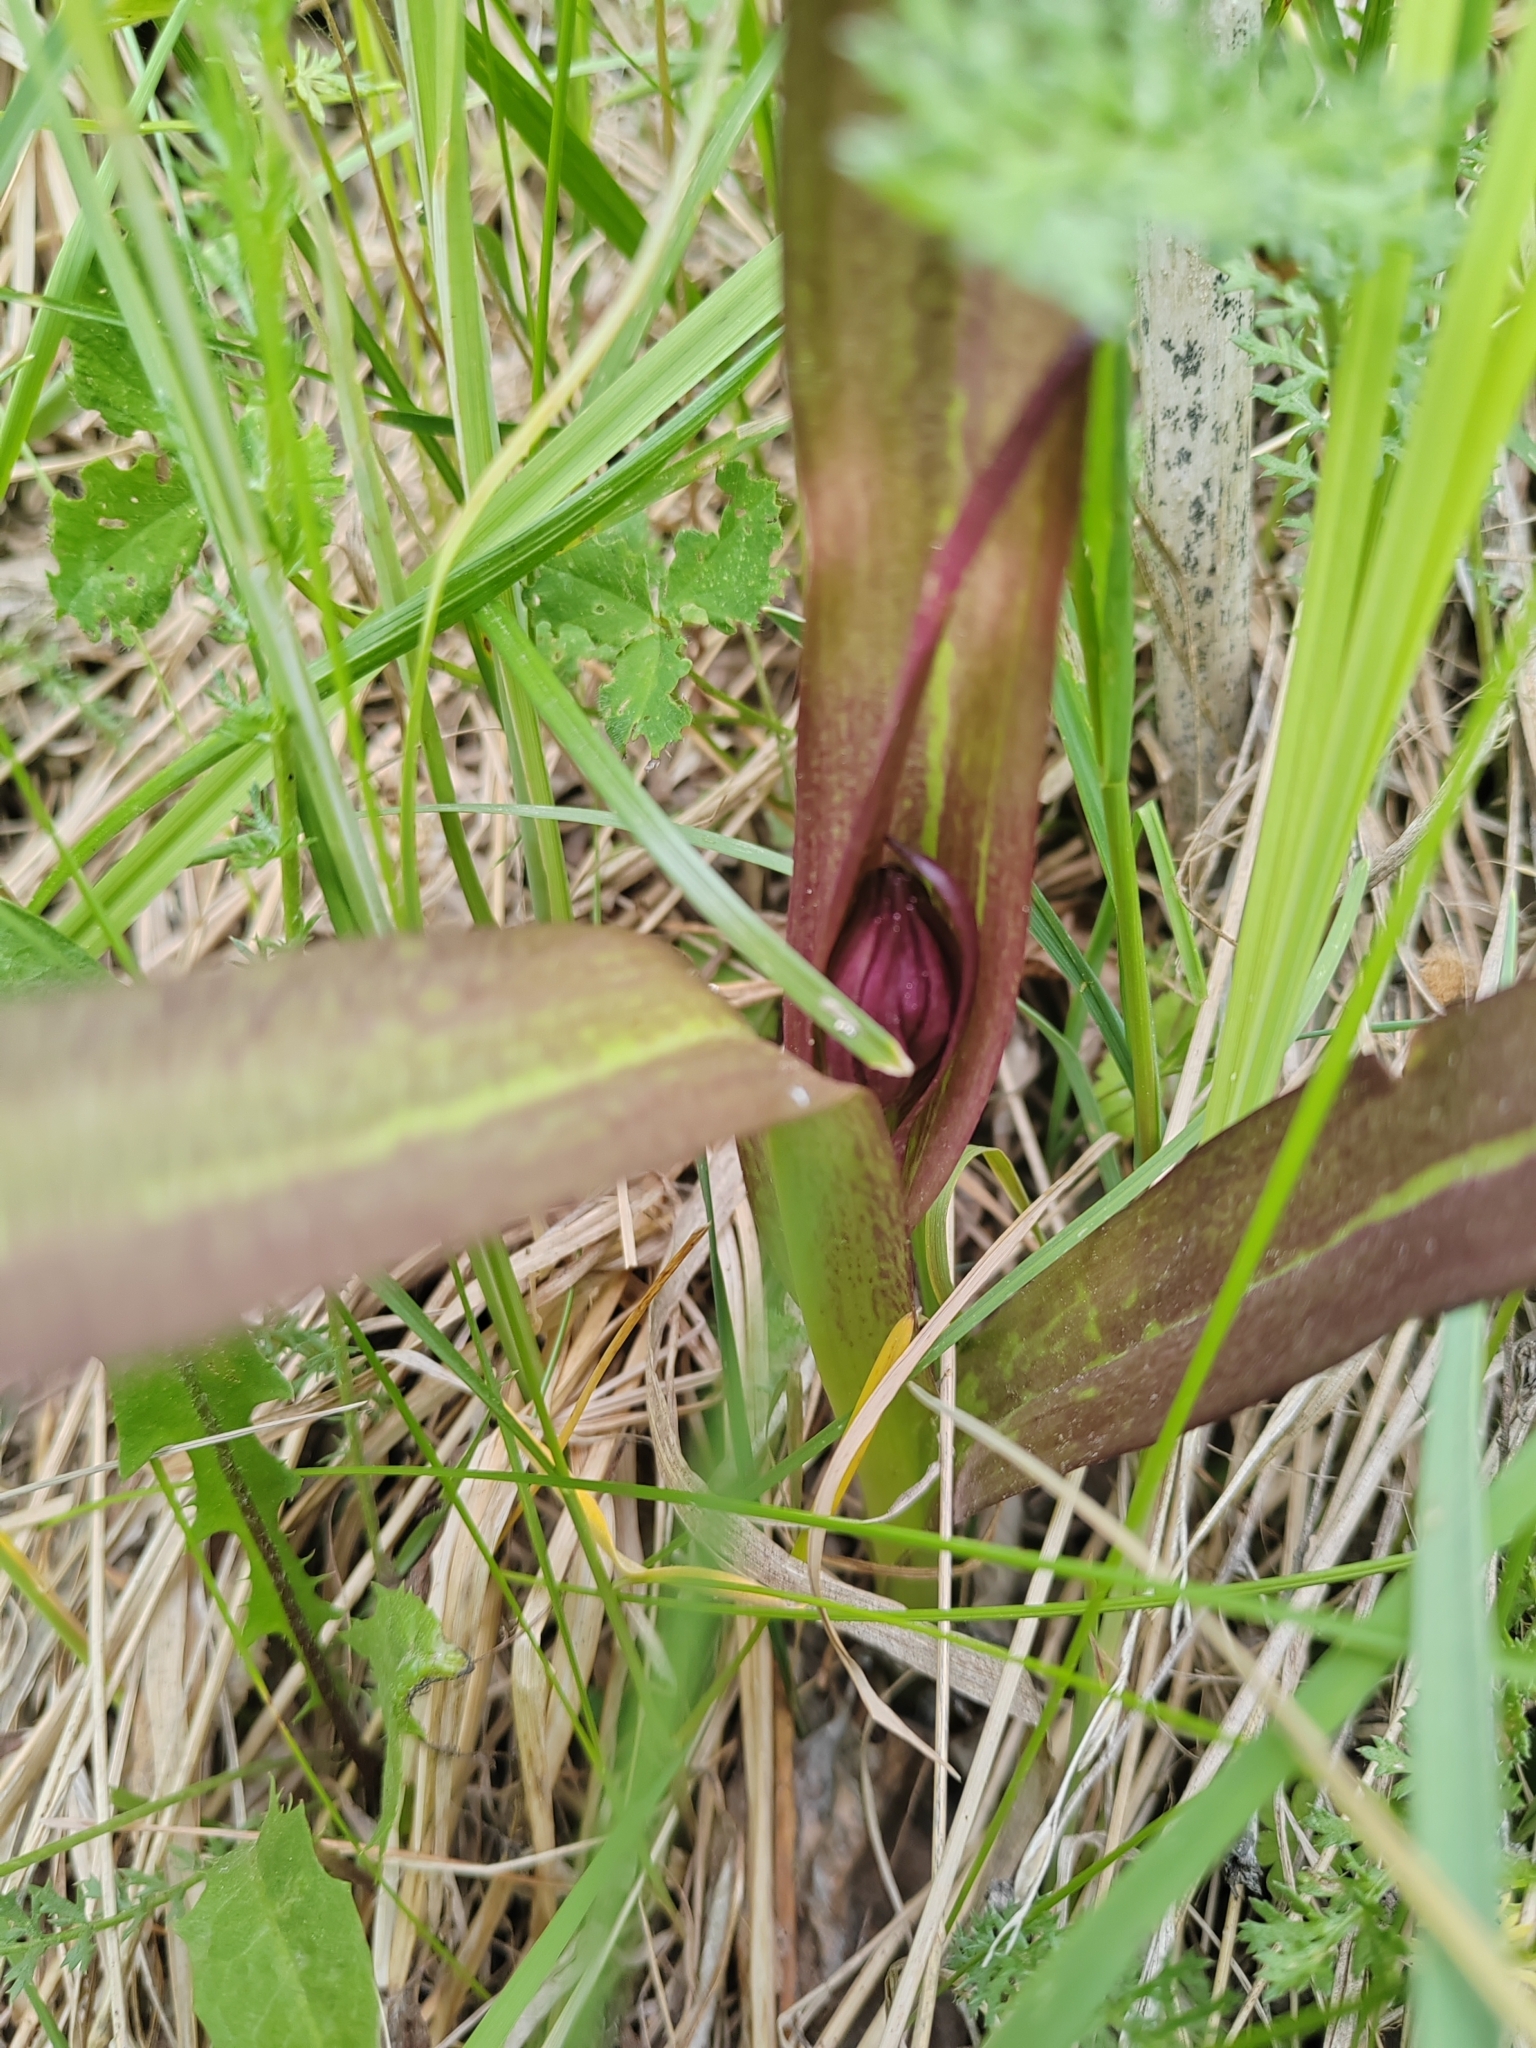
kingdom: Plantae
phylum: Tracheophyta
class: Liliopsida
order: Asparagales
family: Orchidaceae
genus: Dactylorhiza
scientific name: Dactylorhiza incarnata
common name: Early marsh-orchid
